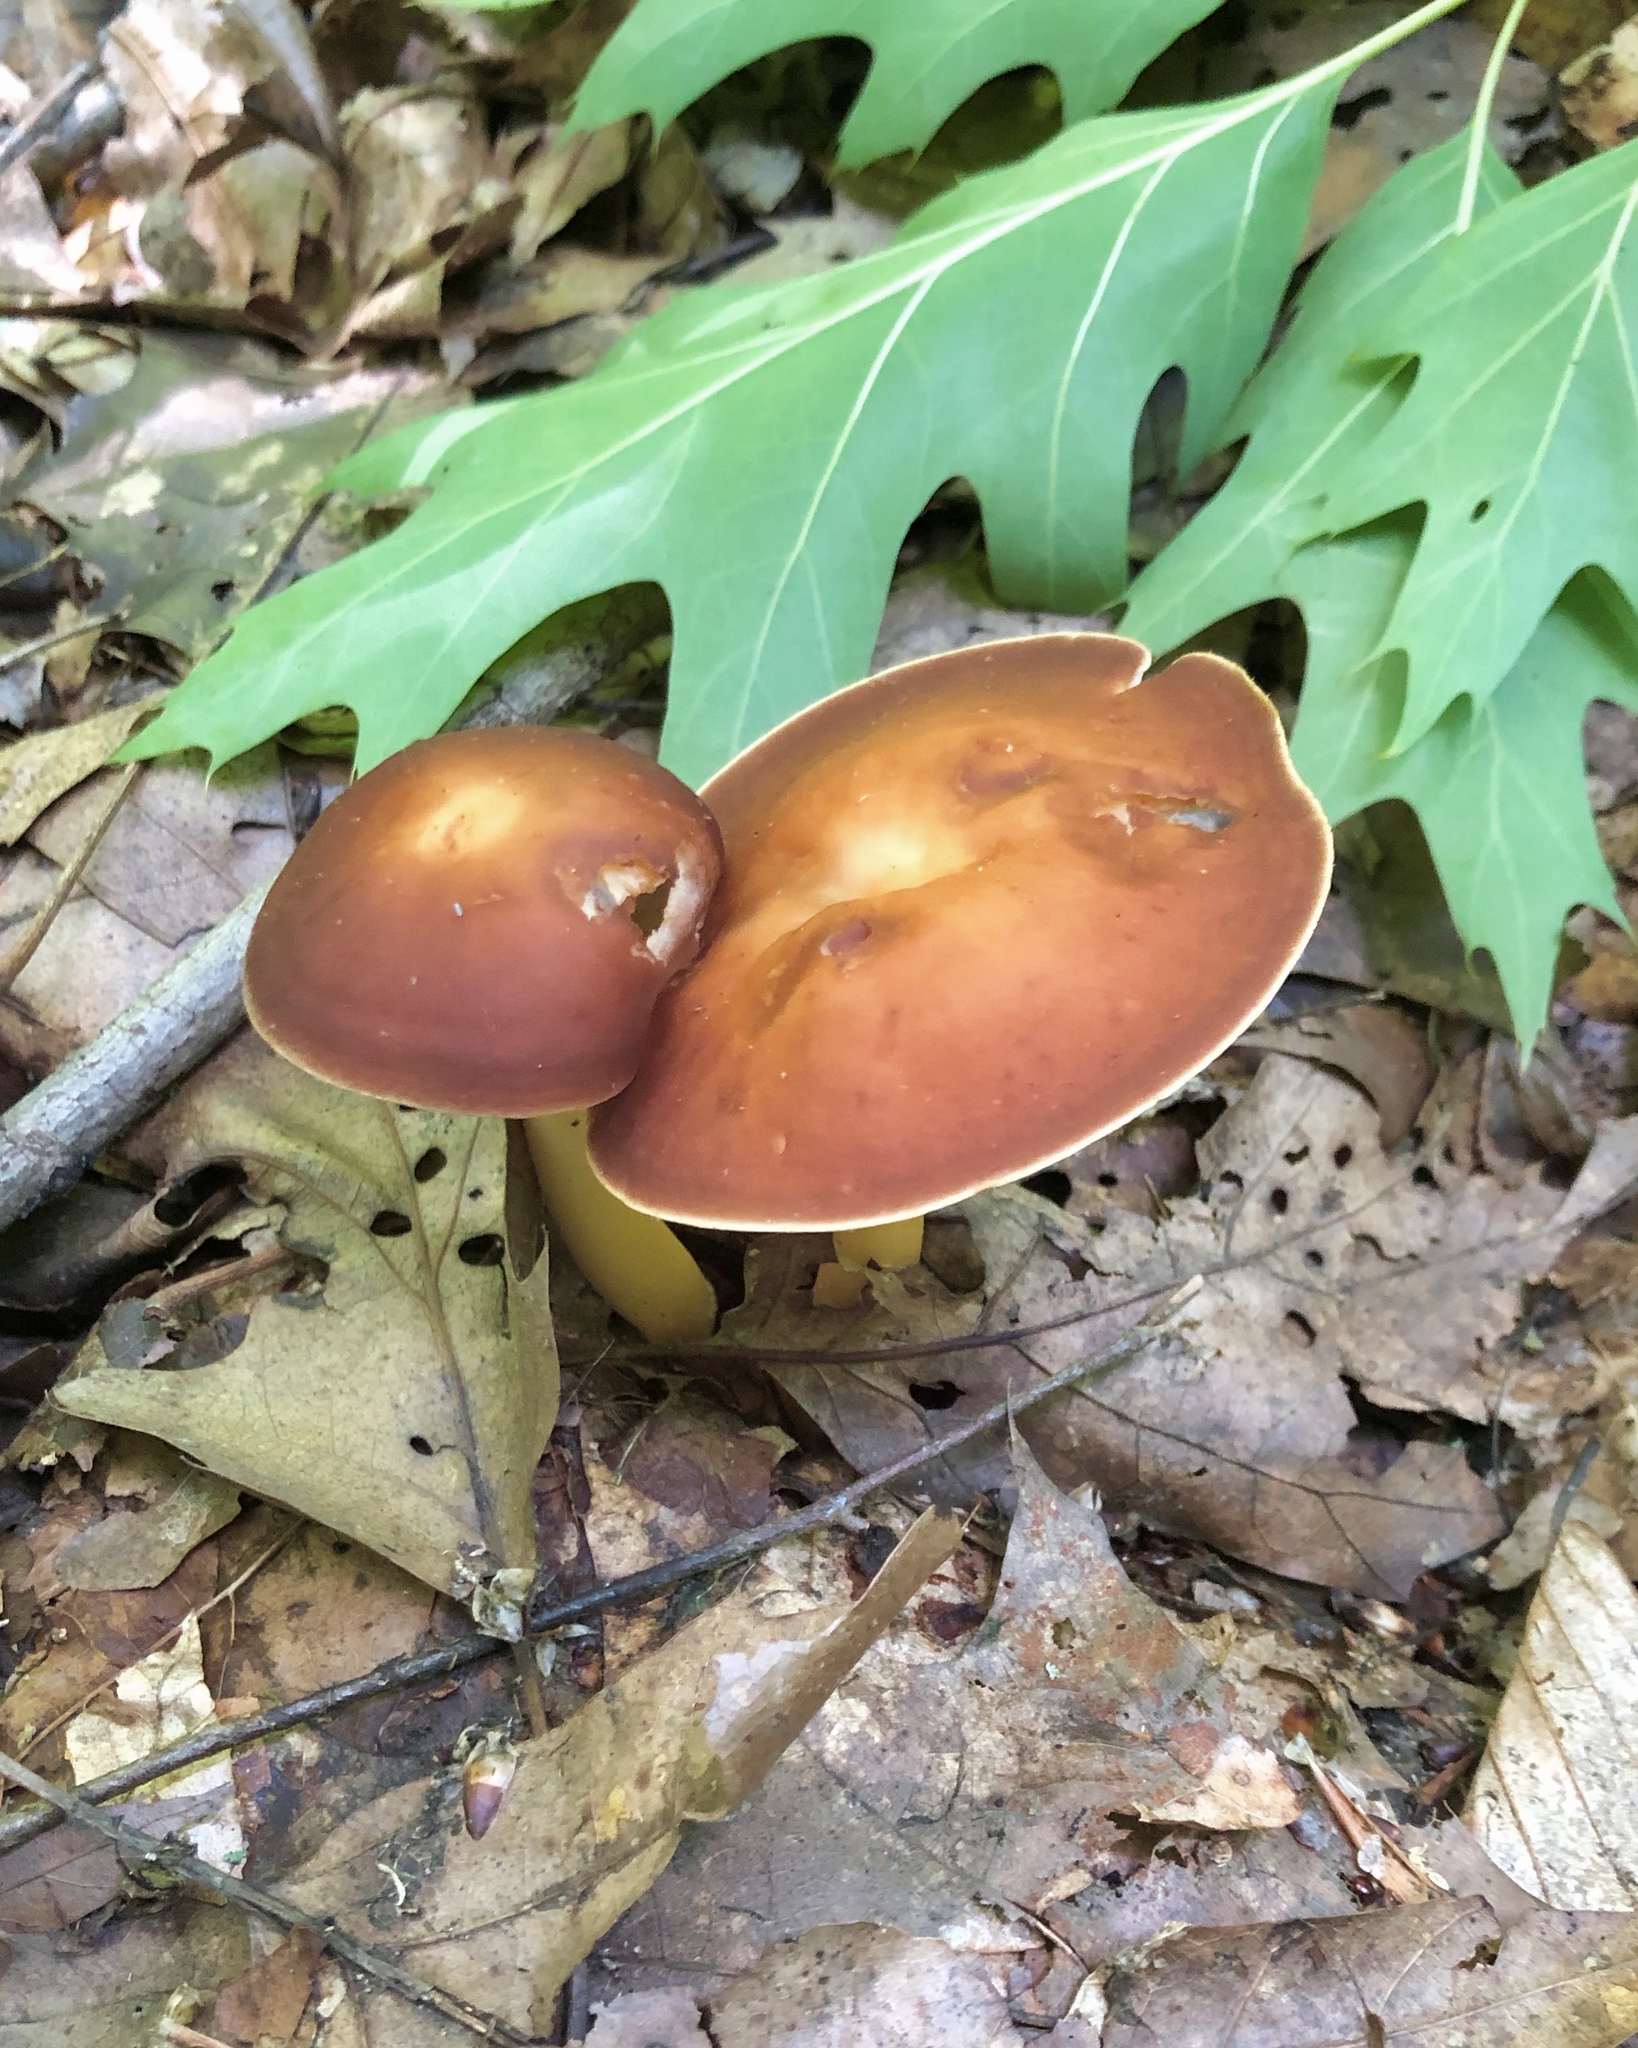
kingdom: Fungi
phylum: Basidiomycota
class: Agaricomycetes
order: Agaricales
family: Omphalotaceae
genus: Gymnopus
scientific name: Gymnopus dryophilus
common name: Penny top
